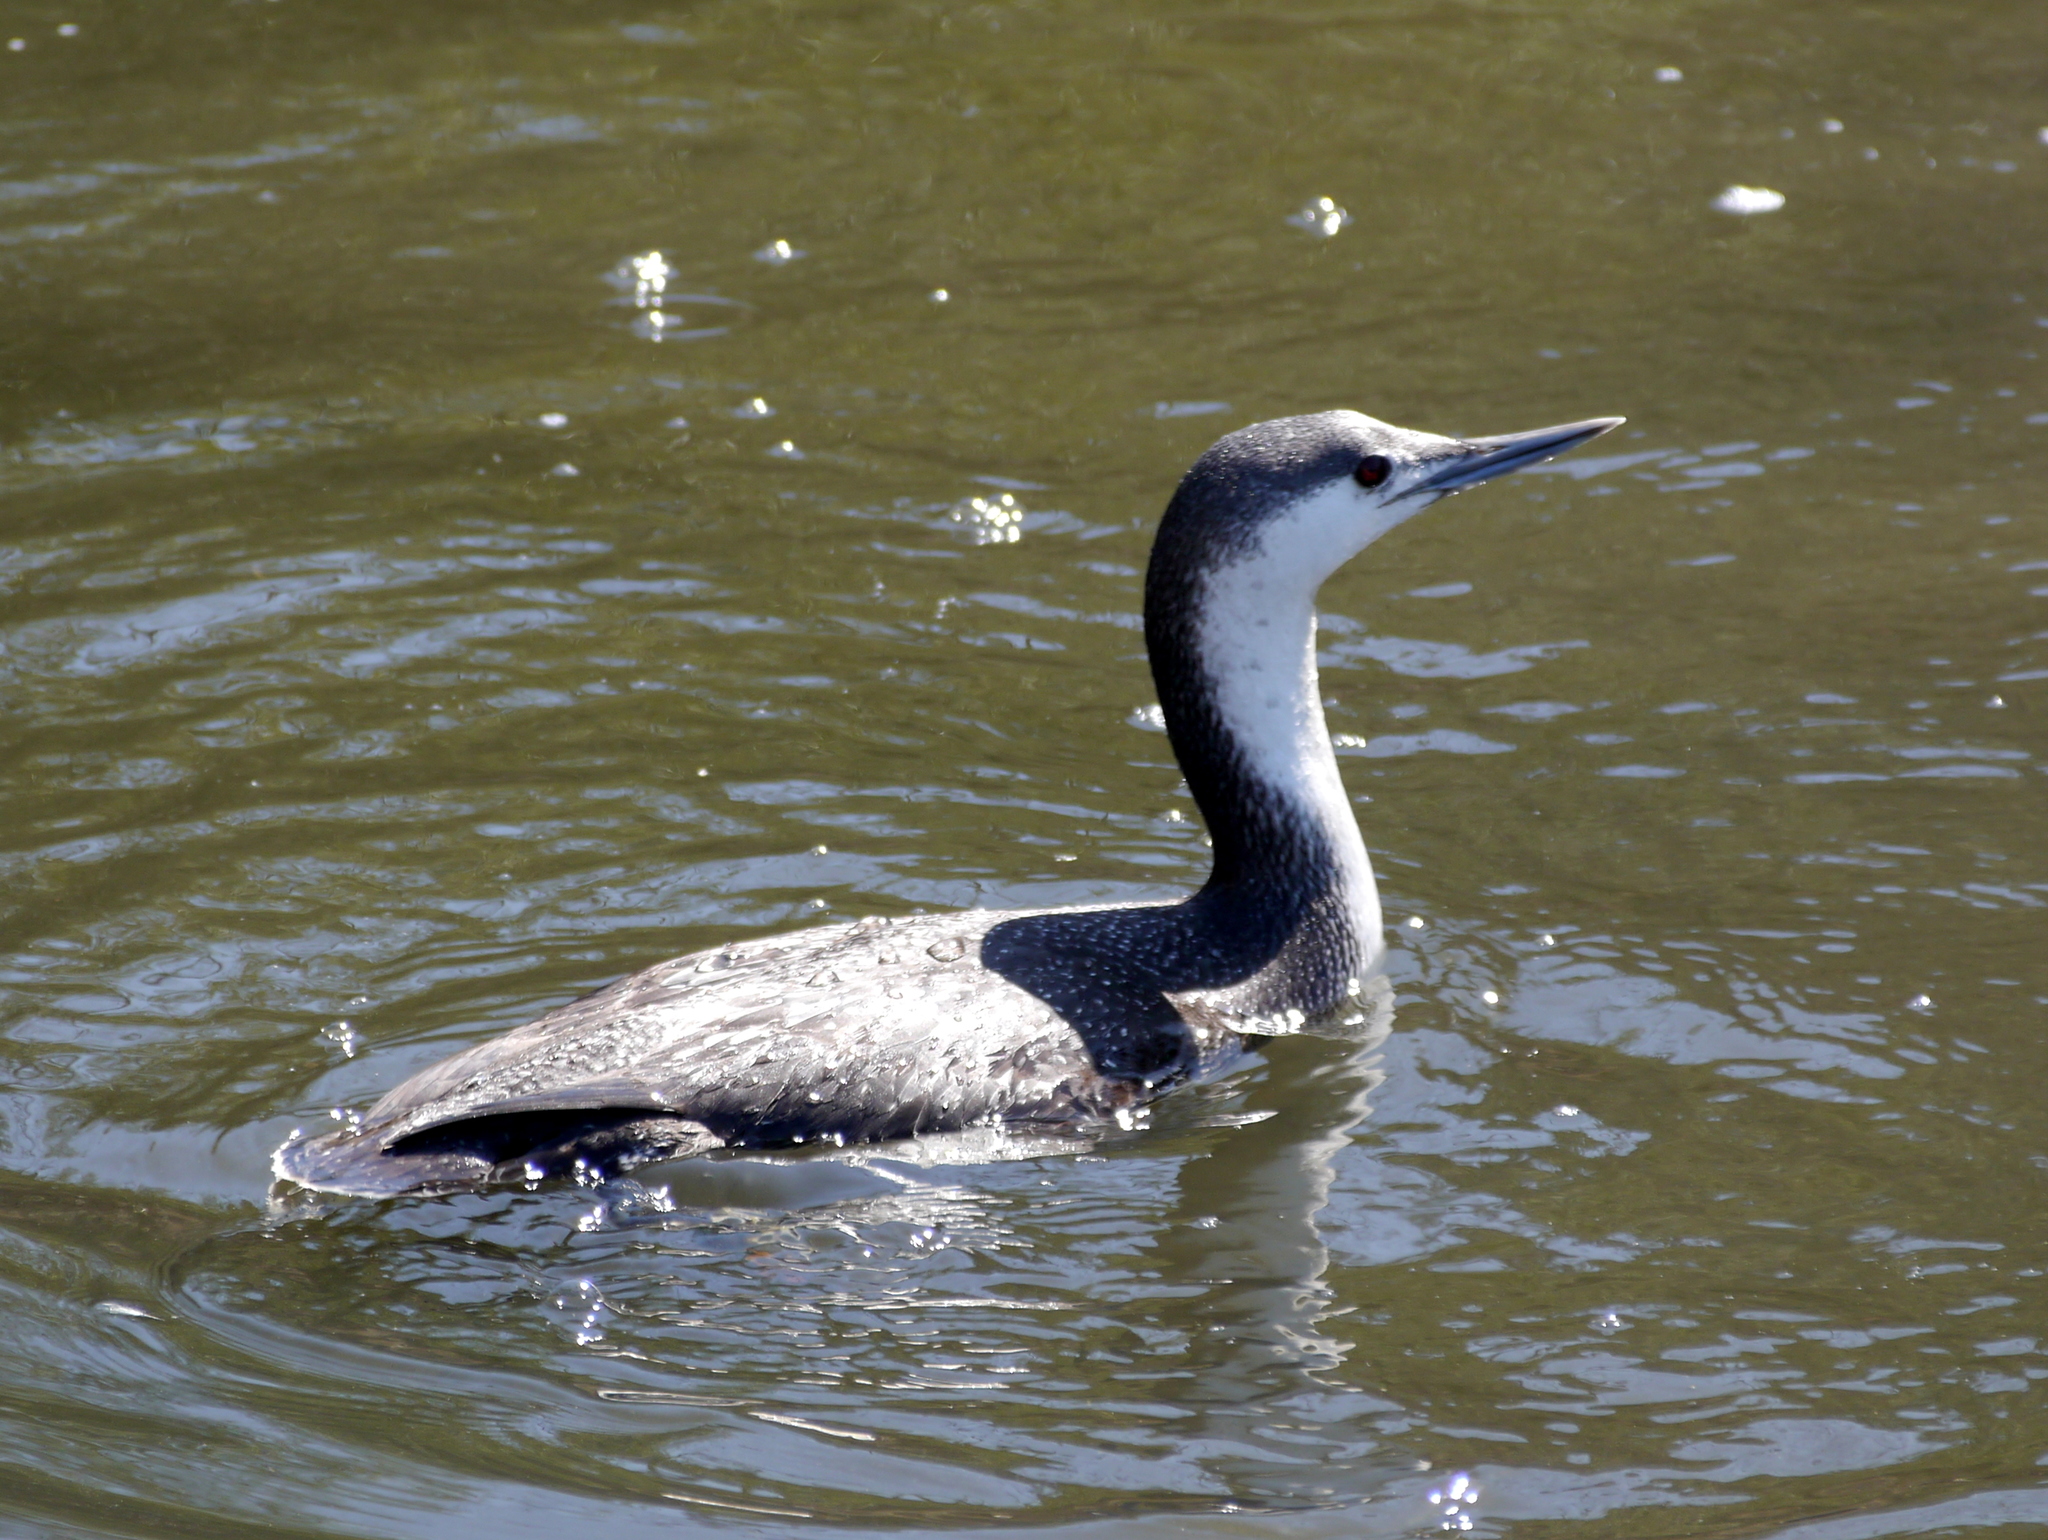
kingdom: Animalia
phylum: Chordata
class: Aves
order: Gaviiformes
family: Gaviidae
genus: Gavia
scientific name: Gavia stellata
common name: Red-throated loon
